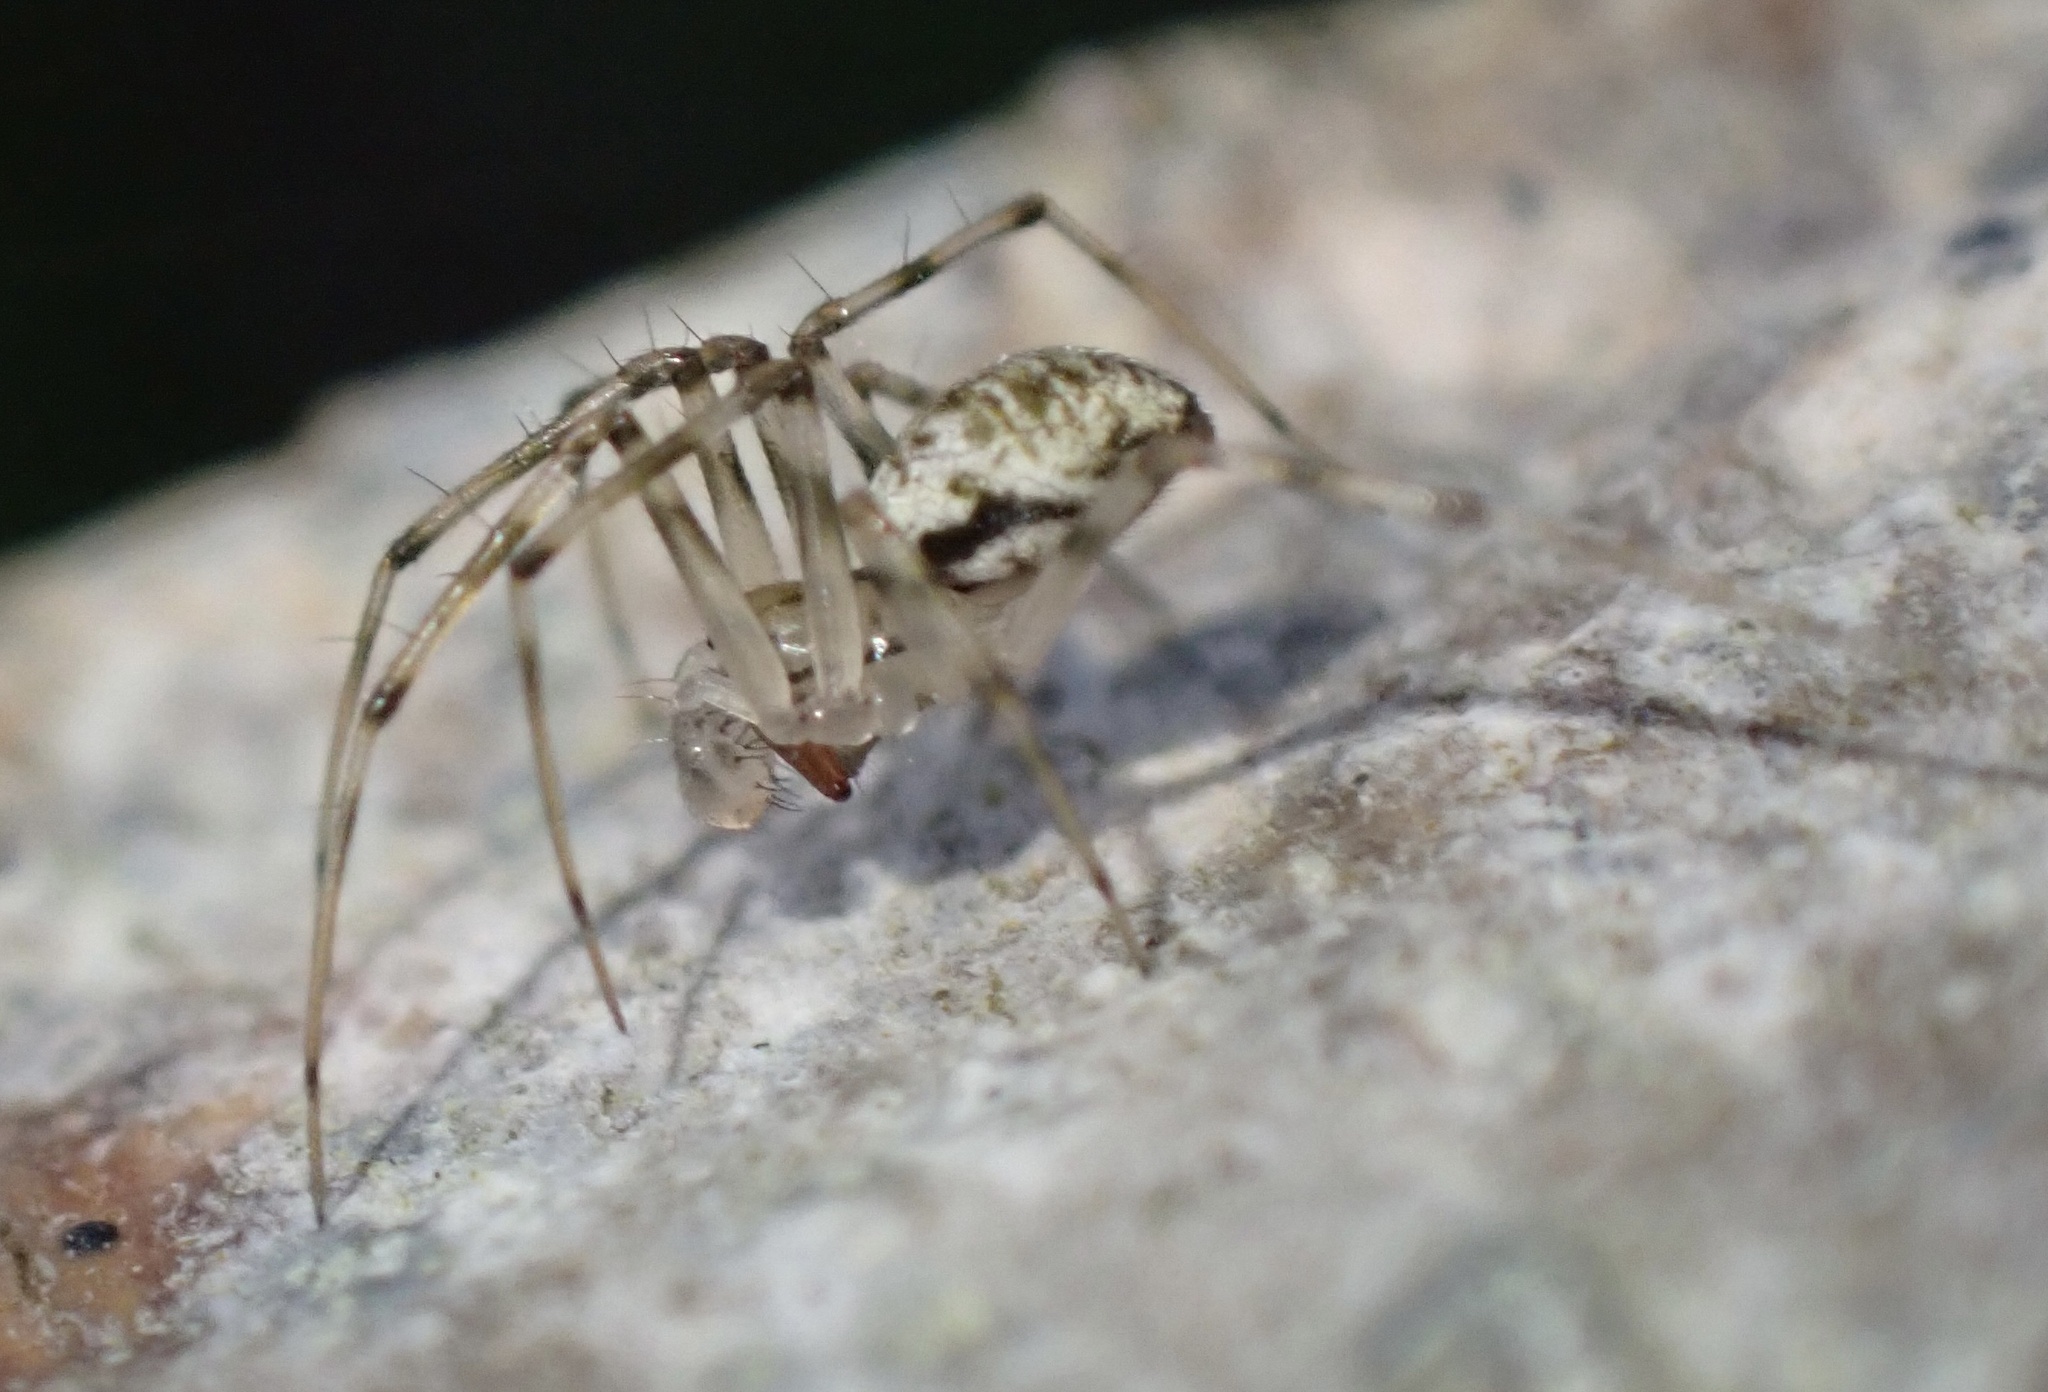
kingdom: Animalia
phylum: Arthropoda
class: Arachnida
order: Araneae
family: Linyphiidae
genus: Drapetisca
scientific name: Drapetisca socialis
